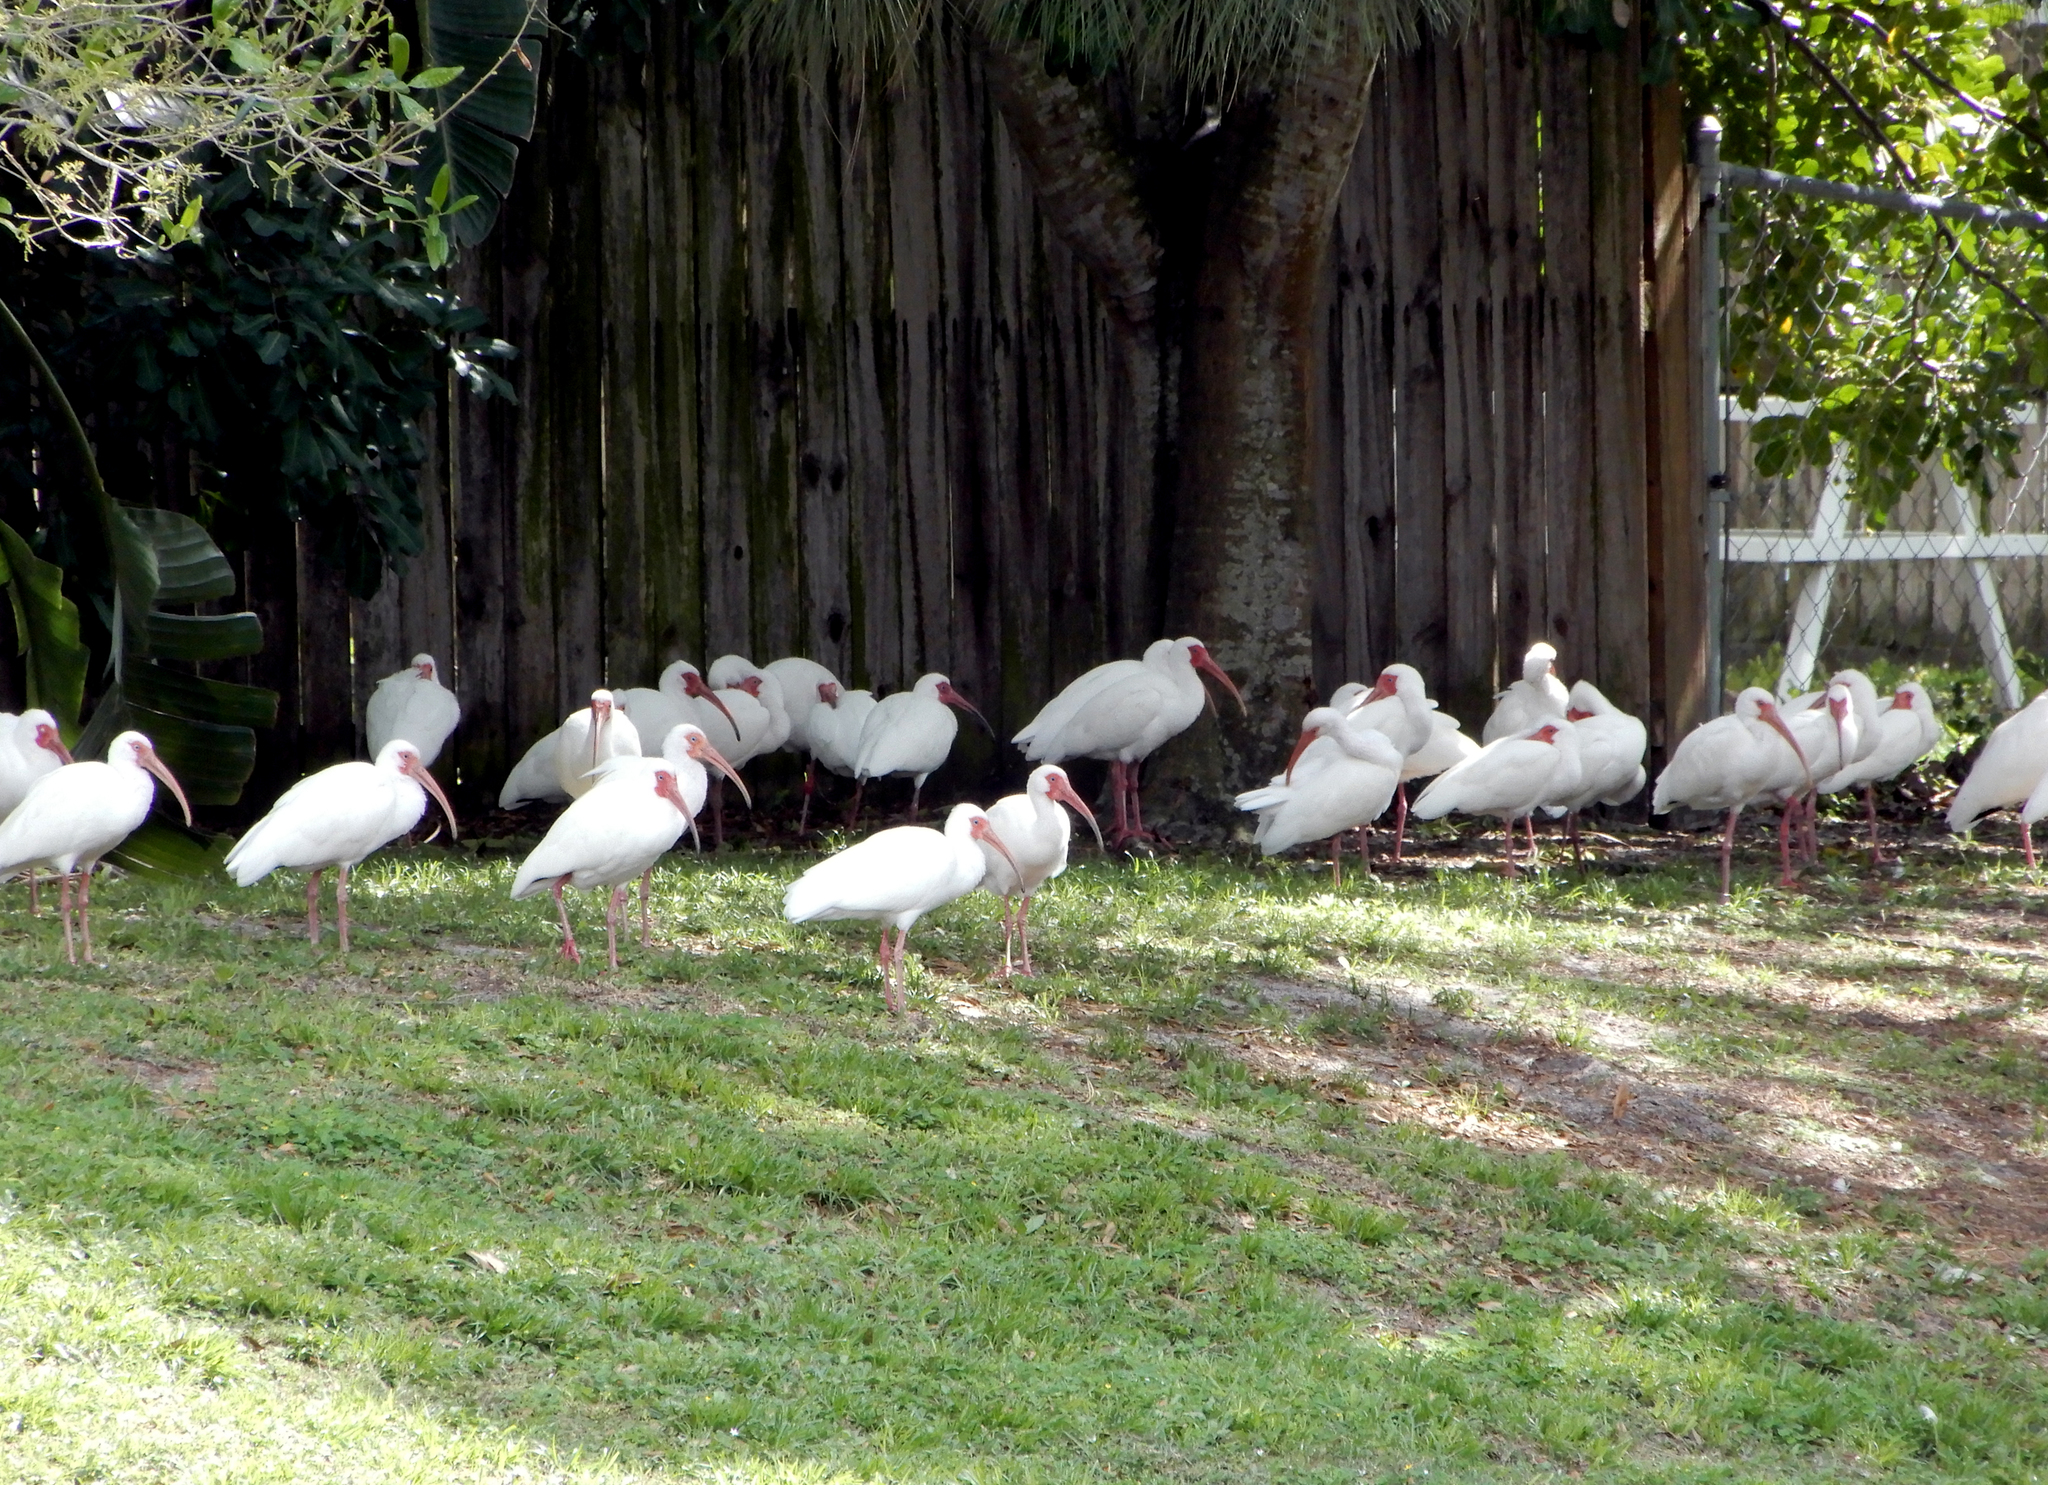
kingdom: Animalia
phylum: Chordata
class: Aves
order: Pelecaniformes
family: Threskiornithidae
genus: Eudocimus
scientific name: Eudocimus albus
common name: White ibis
